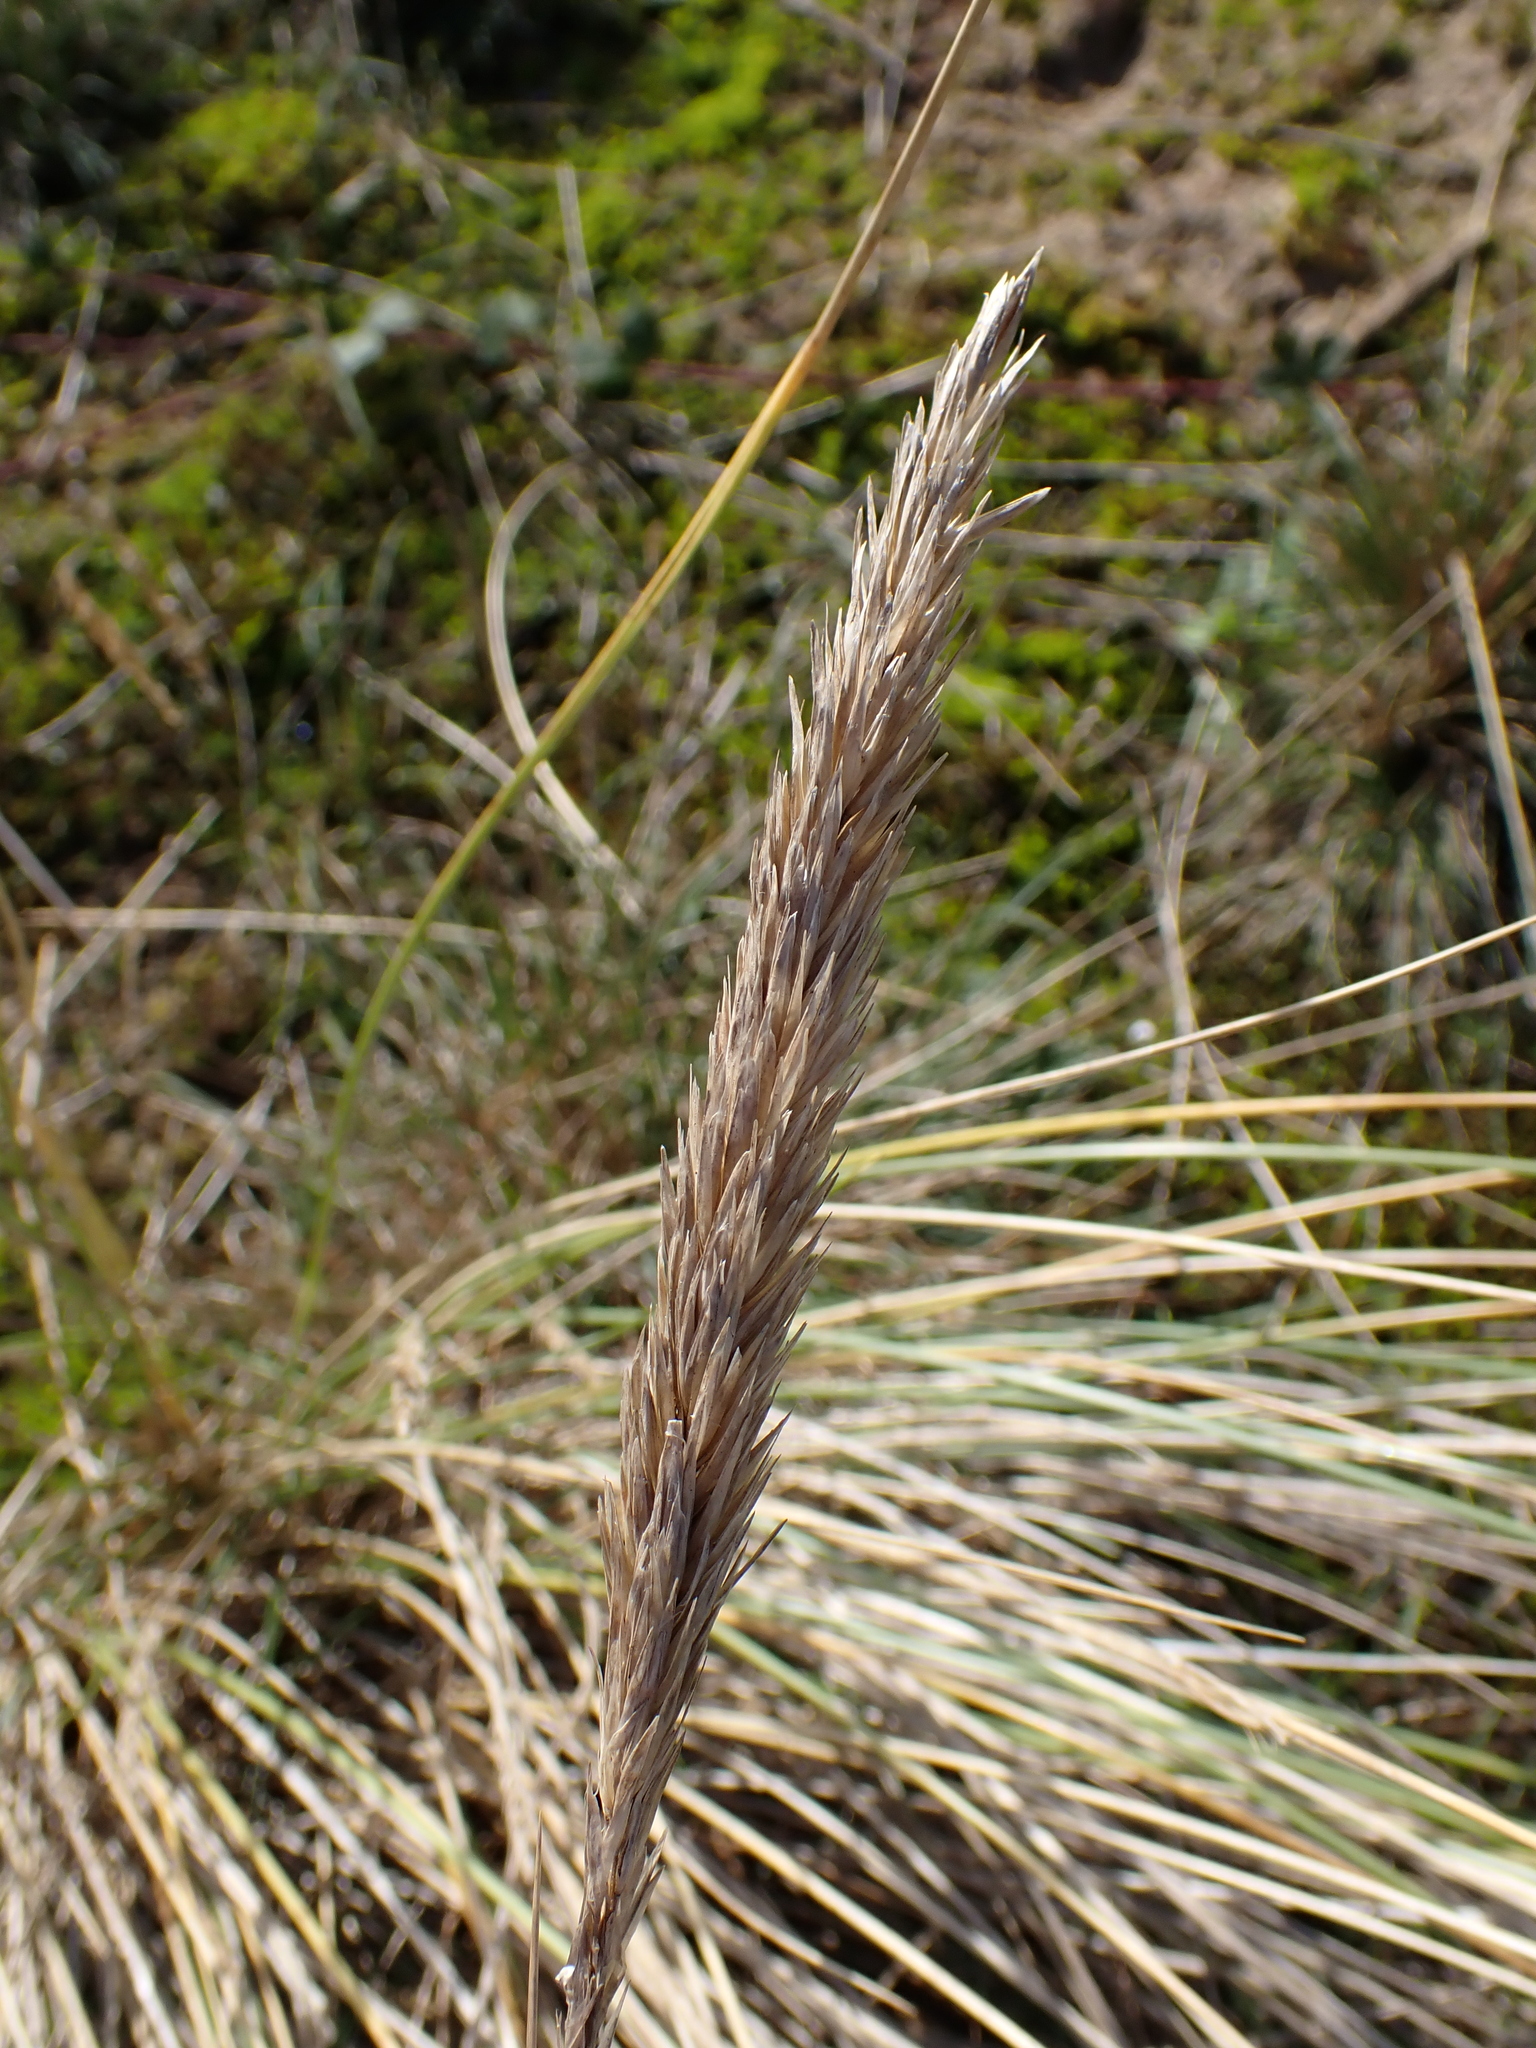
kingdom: Plantae
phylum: Tracheophyta
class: Liliopsida
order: Poales
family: Poaceae
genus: Calamagrostis
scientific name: Calamagrostis arenaria
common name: European beachgrass
